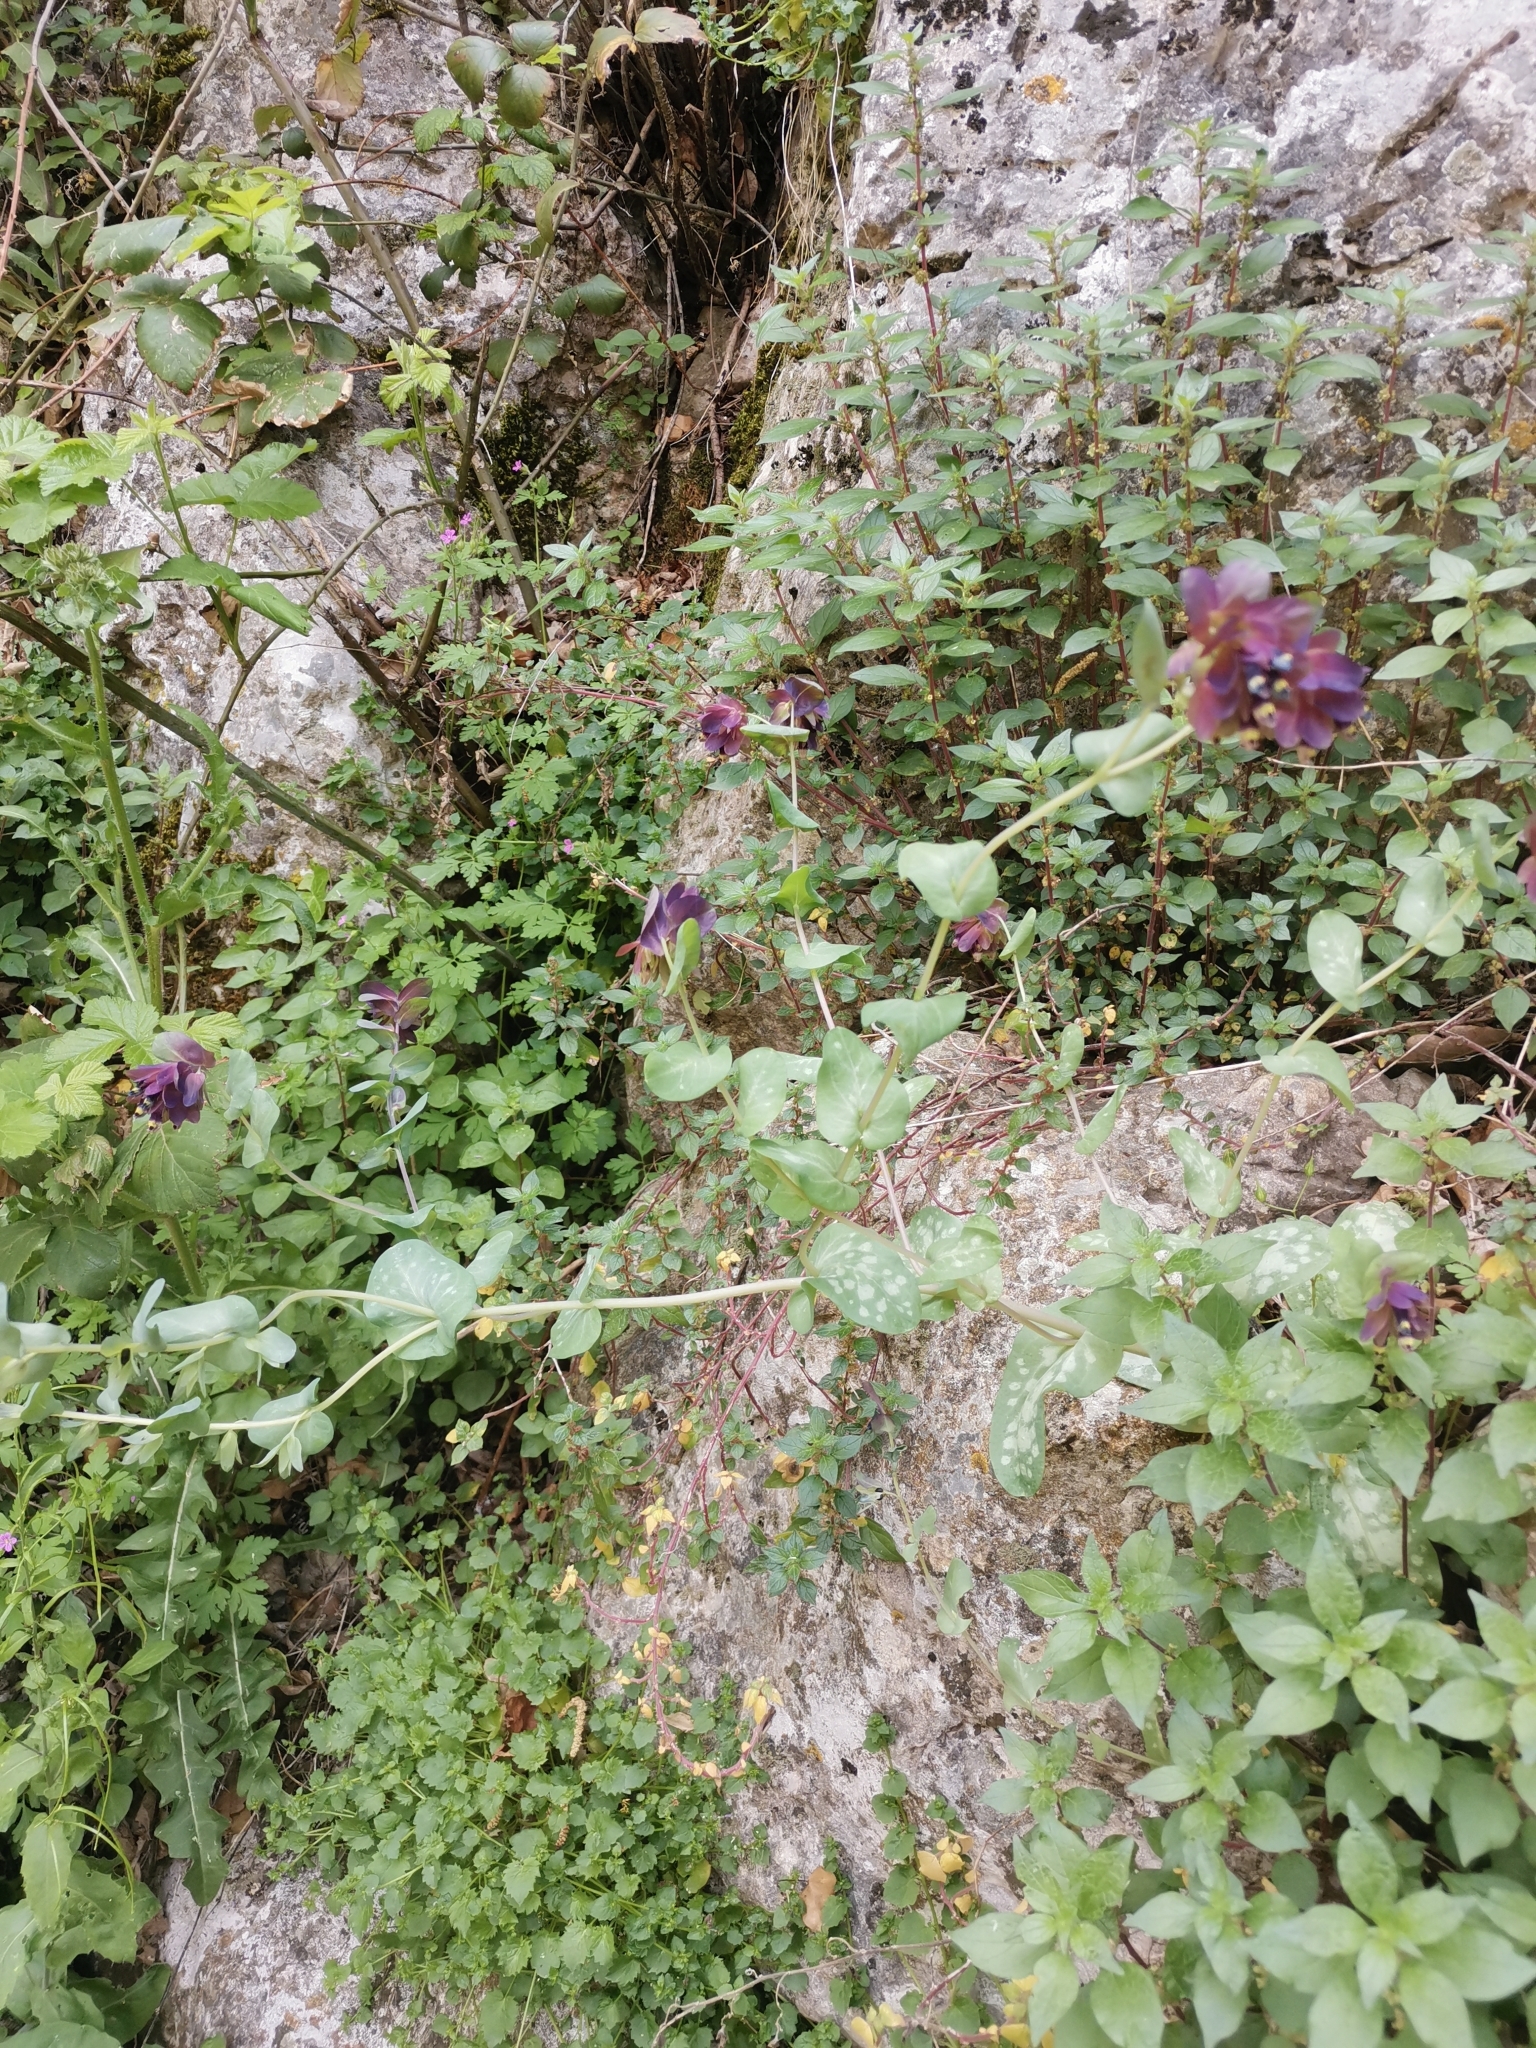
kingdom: Plantae
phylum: Tracheophyta
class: Magnoliopsida
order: Boraginales
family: Boraginaceae
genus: Cerinthe
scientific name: Cerinthe retorta
